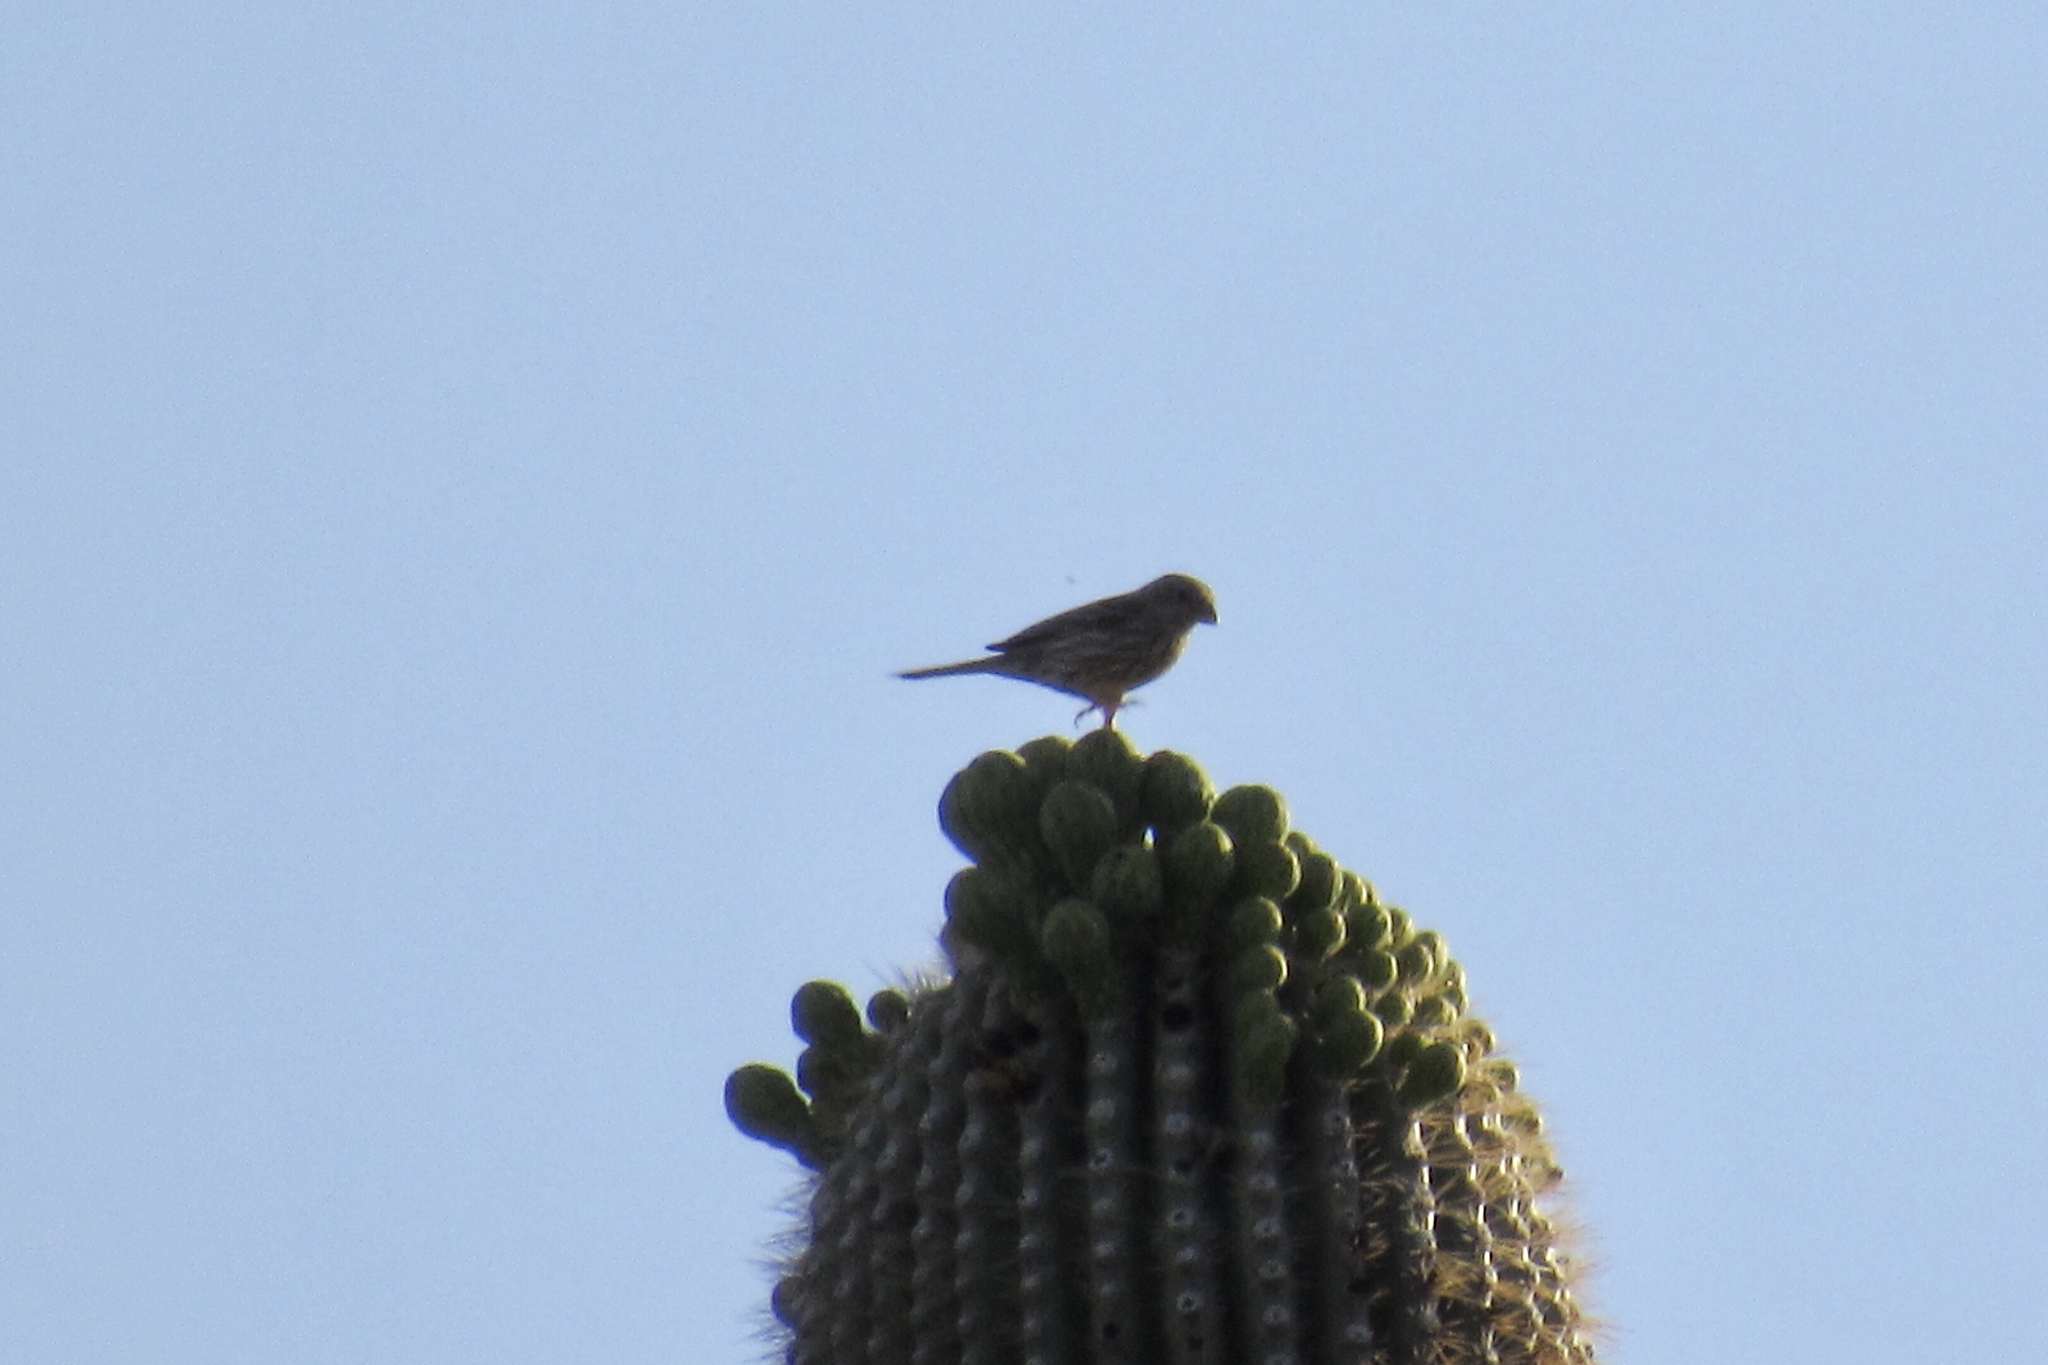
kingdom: Animalia
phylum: Chordata
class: Aves
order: Passeriformes
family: Fringillidae
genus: Haemorhous
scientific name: Haemorhous mexicanus
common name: House finch
